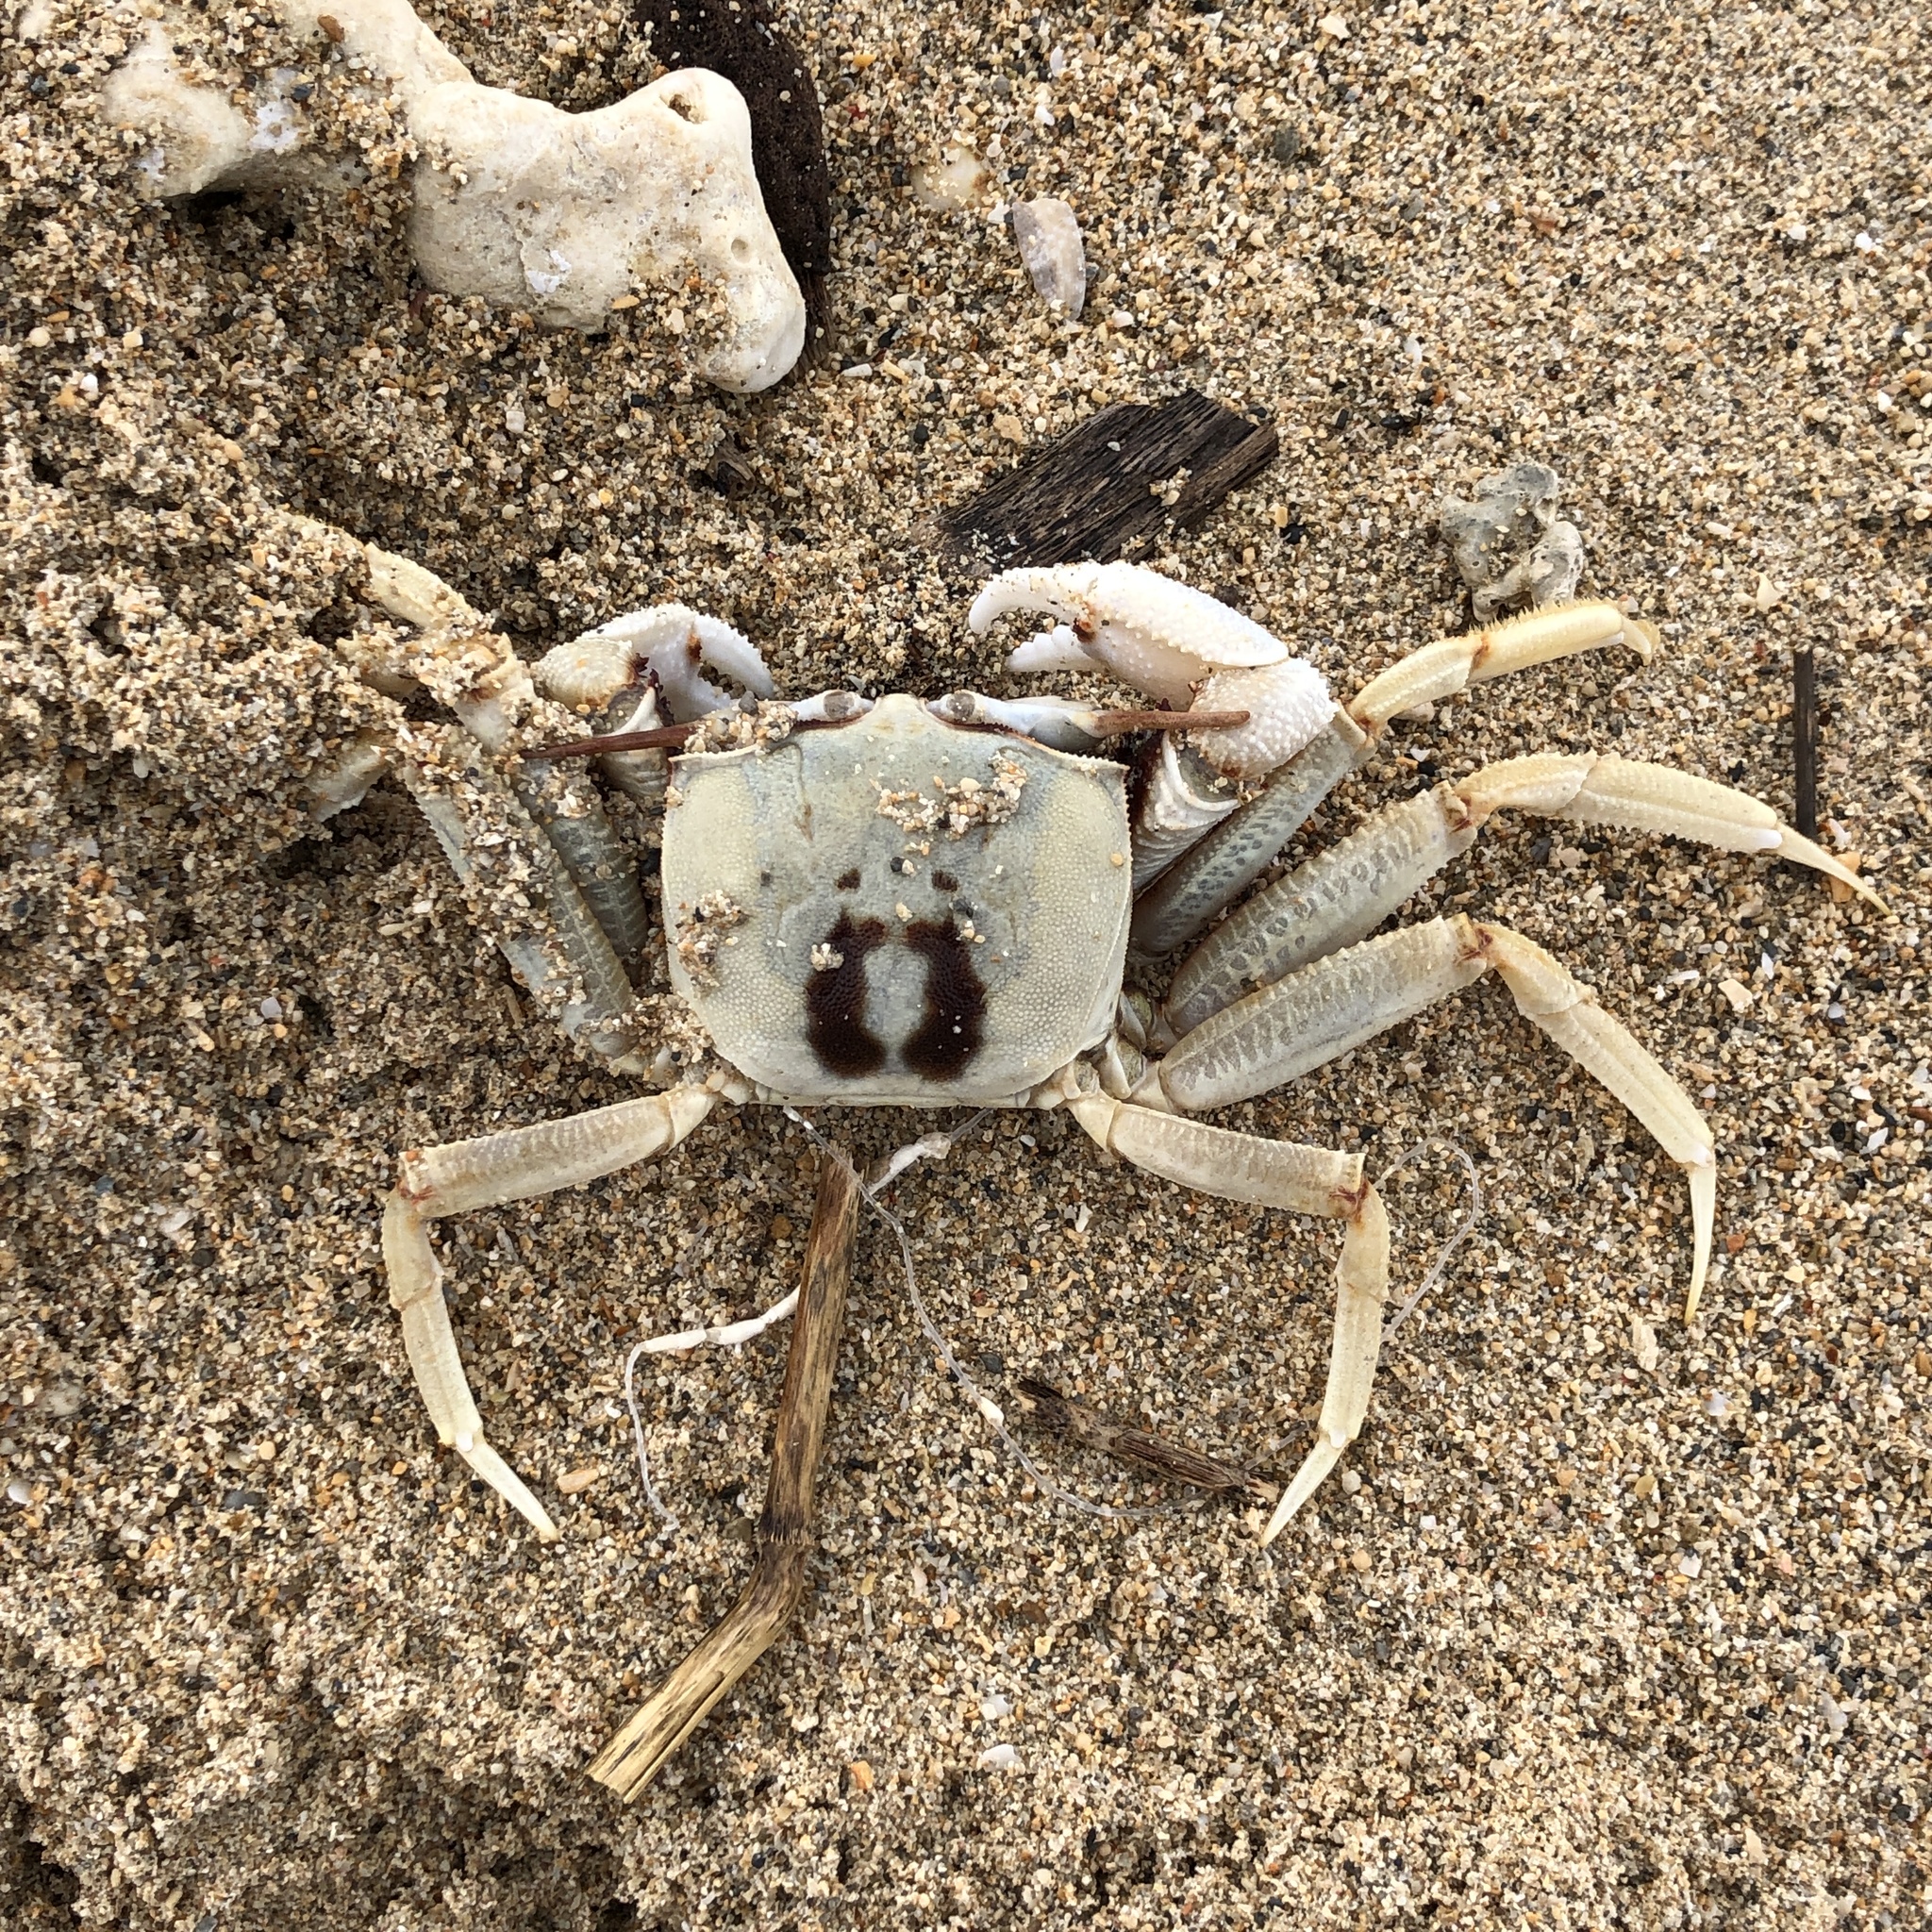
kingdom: Animalia
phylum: Arthropoda
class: Malacostraca
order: Decapoda
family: Ocypodidae
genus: Ocypode
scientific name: Ocypode ceratophthalmus
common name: Indo-pacific ghost crab
